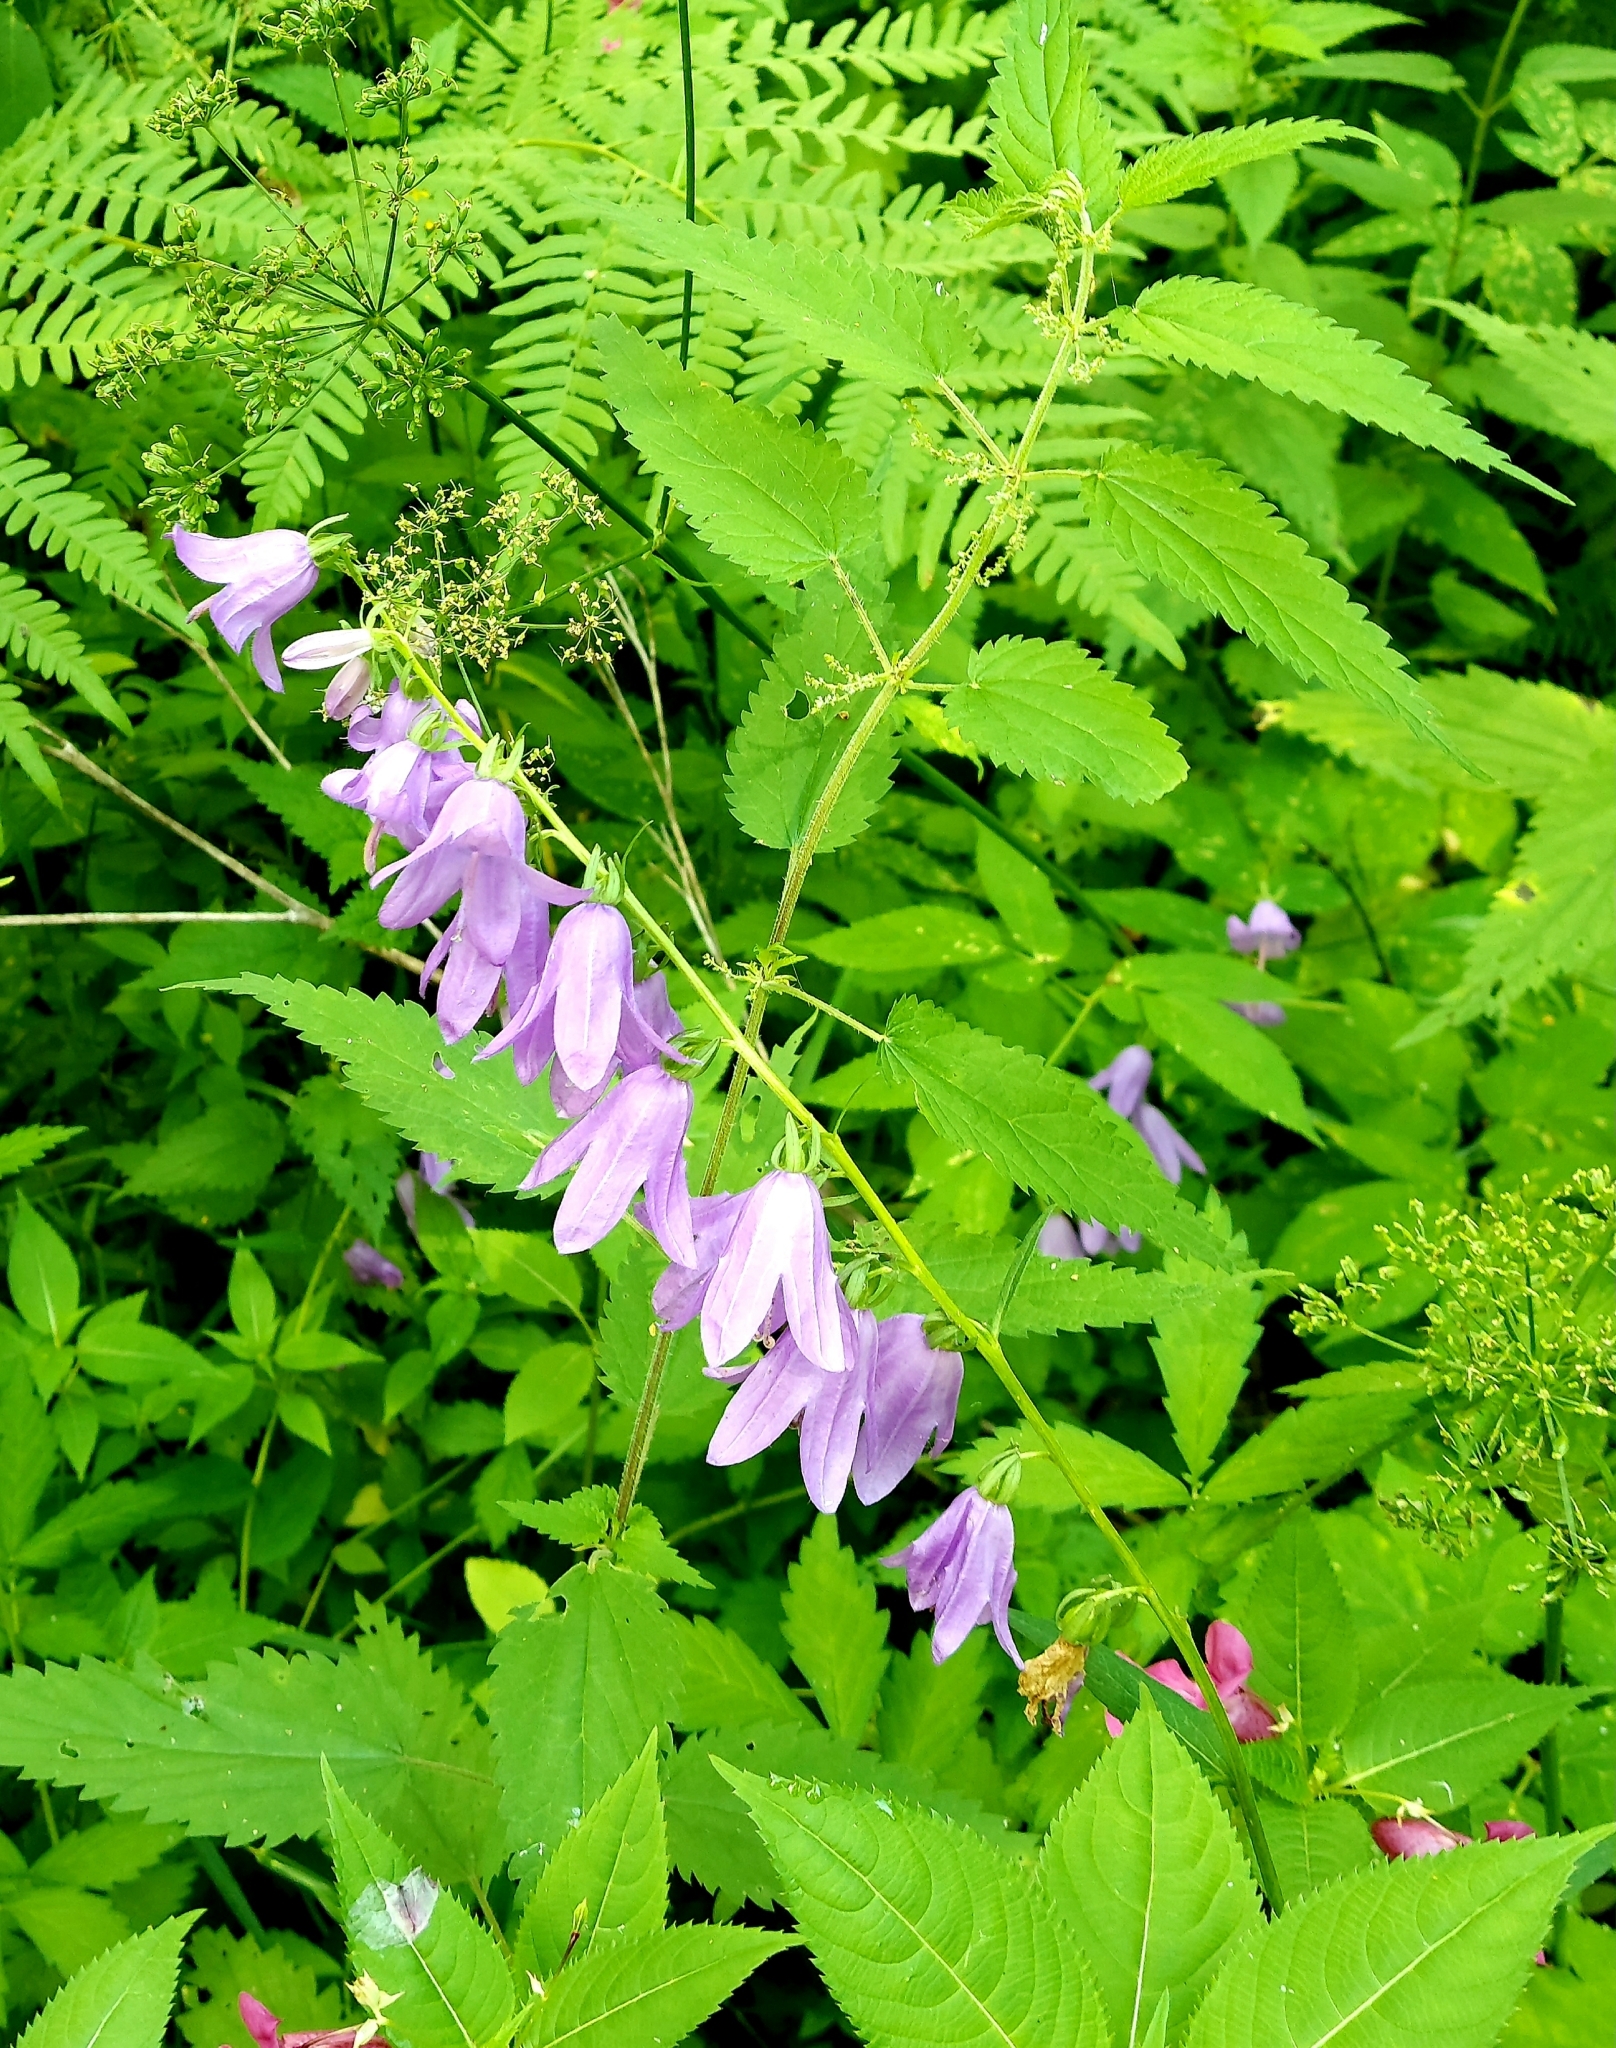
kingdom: Plantae
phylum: Tracheophyta
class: Magnoliopsida
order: Asterales
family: Campanulaceae
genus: Campanula
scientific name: Campanula rapunculoides
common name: Creeping bellflower
